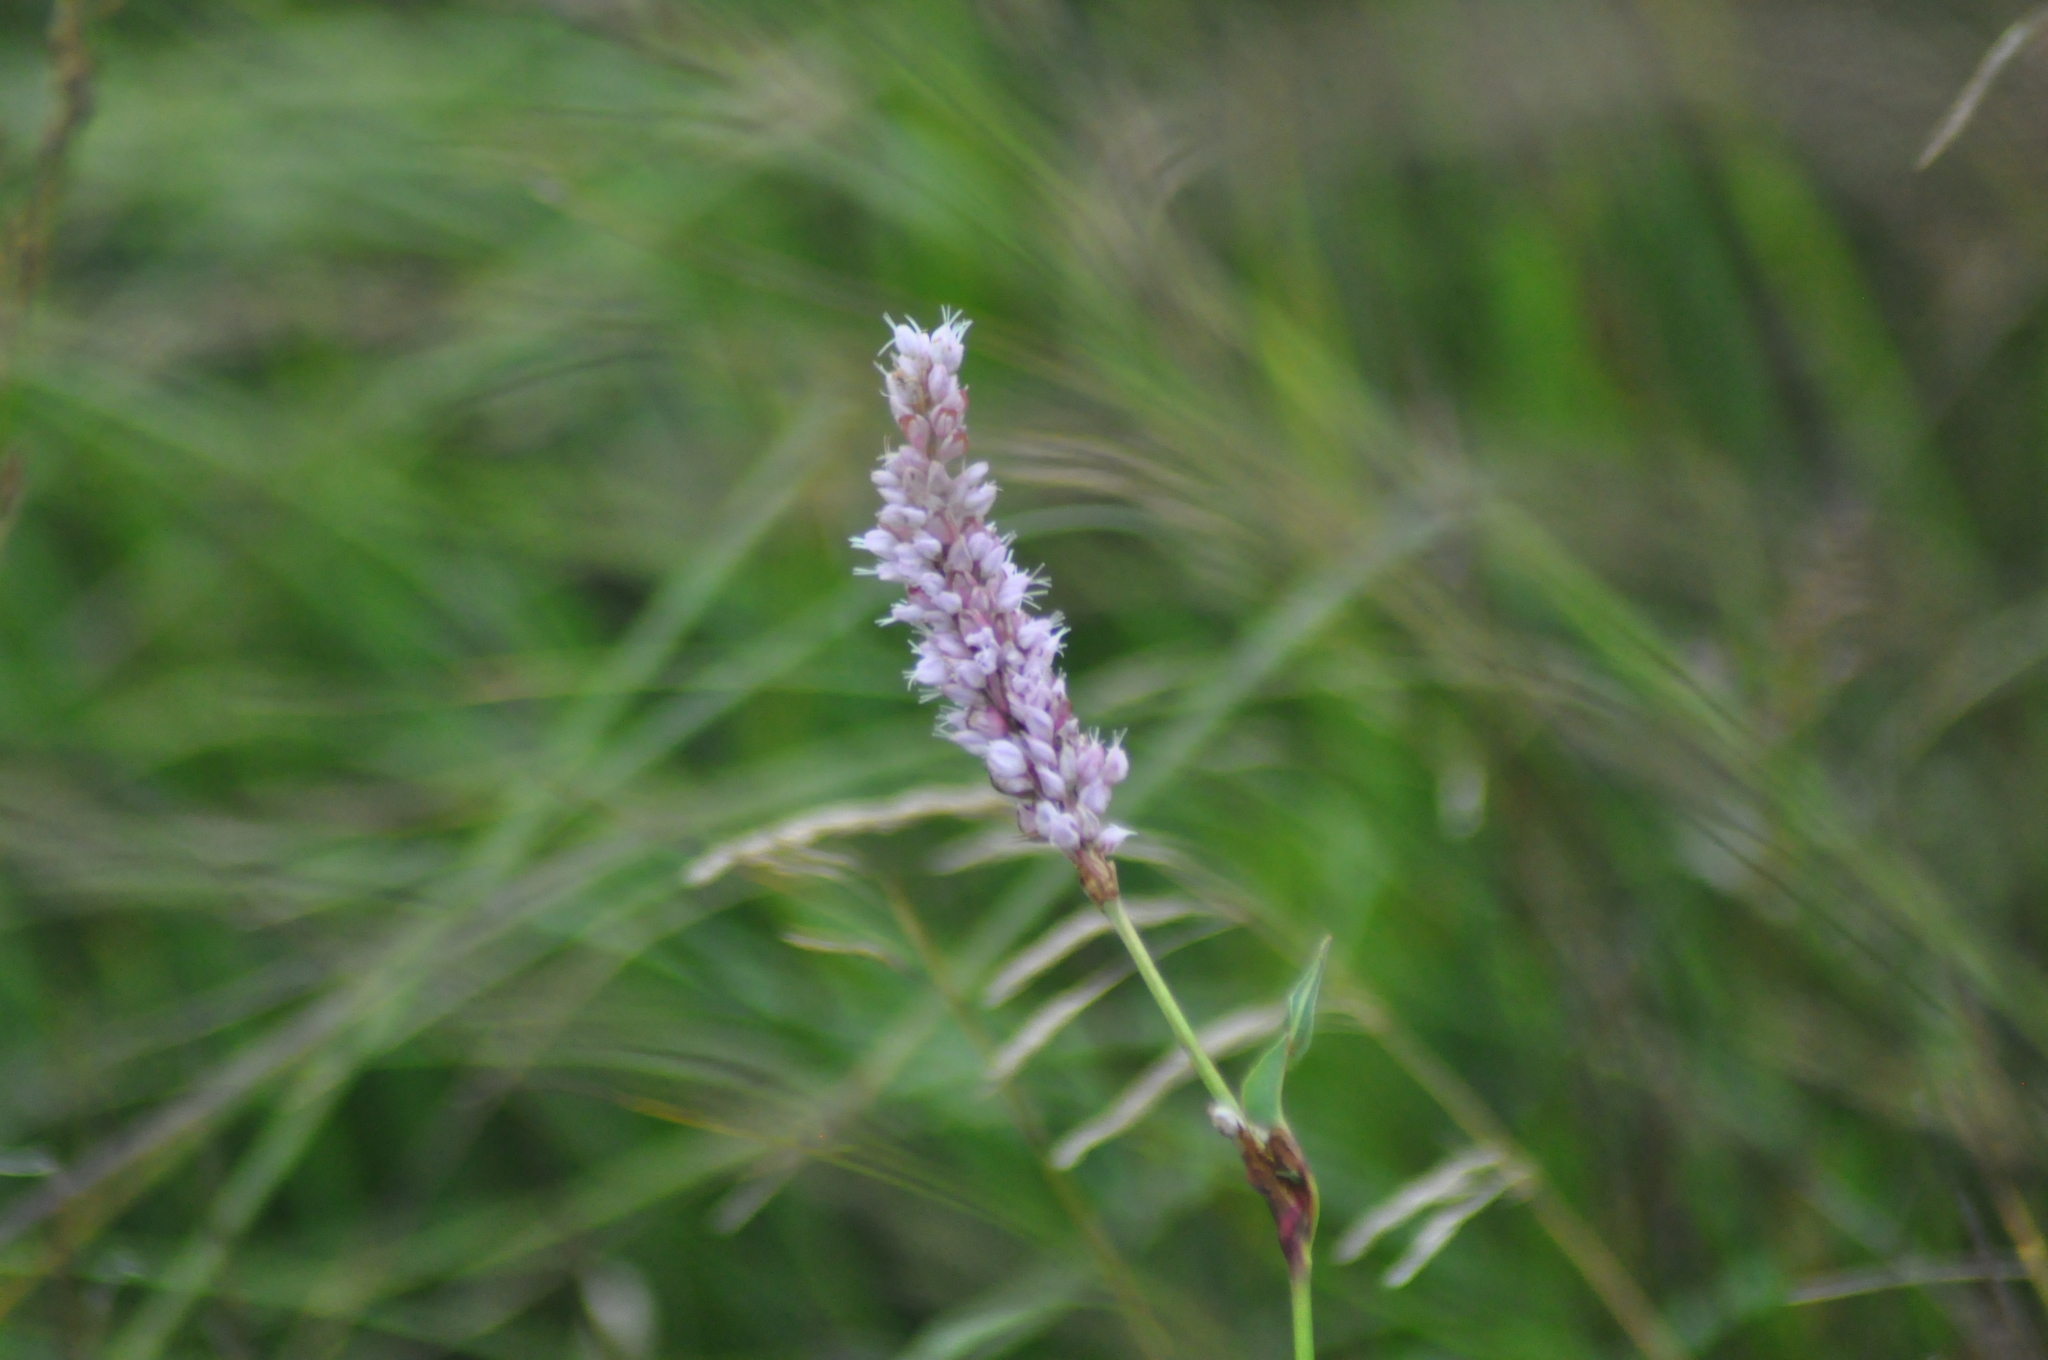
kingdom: Plantae
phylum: Tracheophyta
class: Magnoliopsida
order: Caryophyllales
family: Polygonaceae
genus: Bistorta
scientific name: Bistorta officinalis
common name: Common bistort
